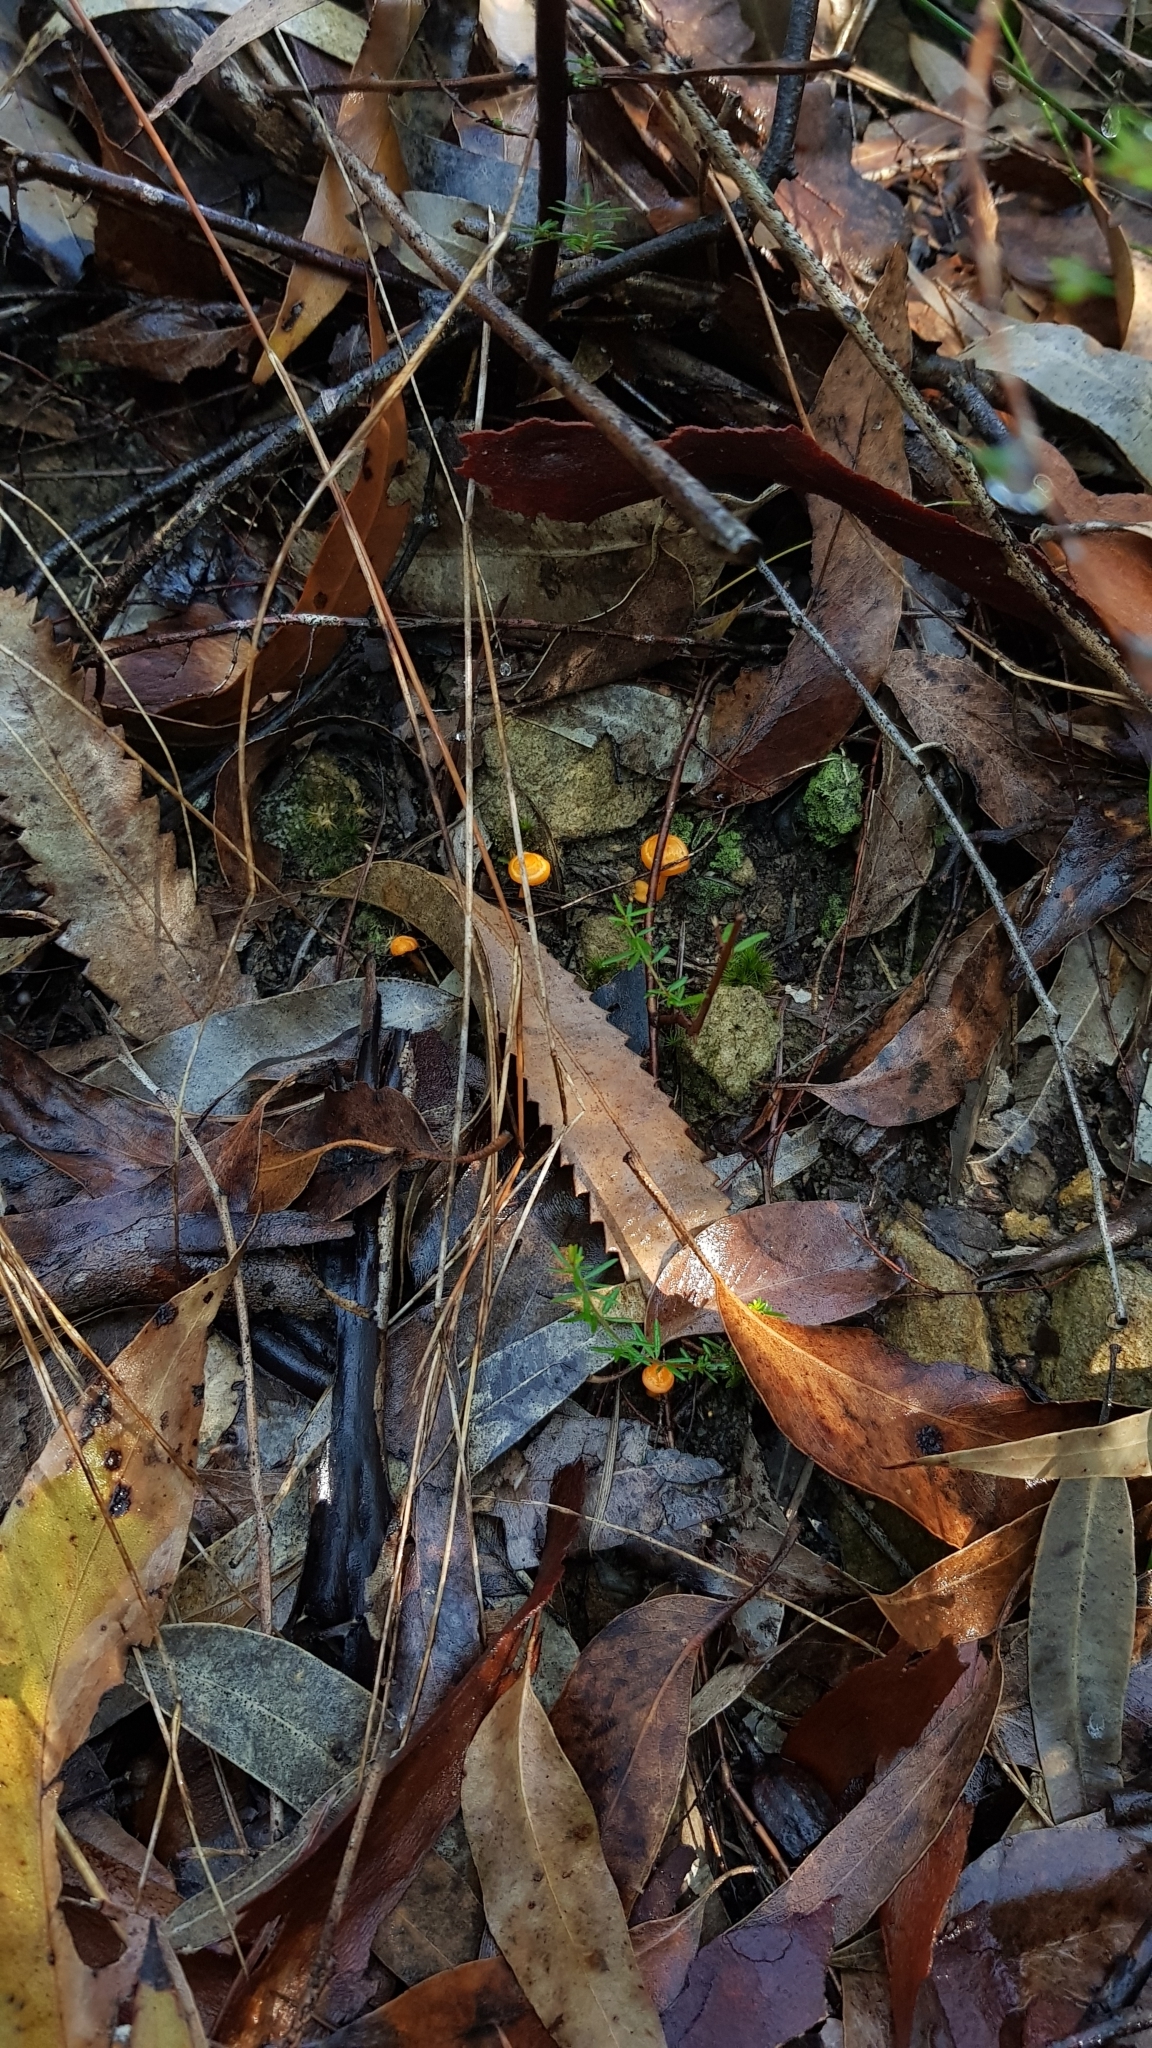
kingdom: Fungi
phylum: Basidiomycota
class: Agaricomycetes
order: Cantharellales
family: Hydnaceae
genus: Cantharellus
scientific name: Cantharellus
